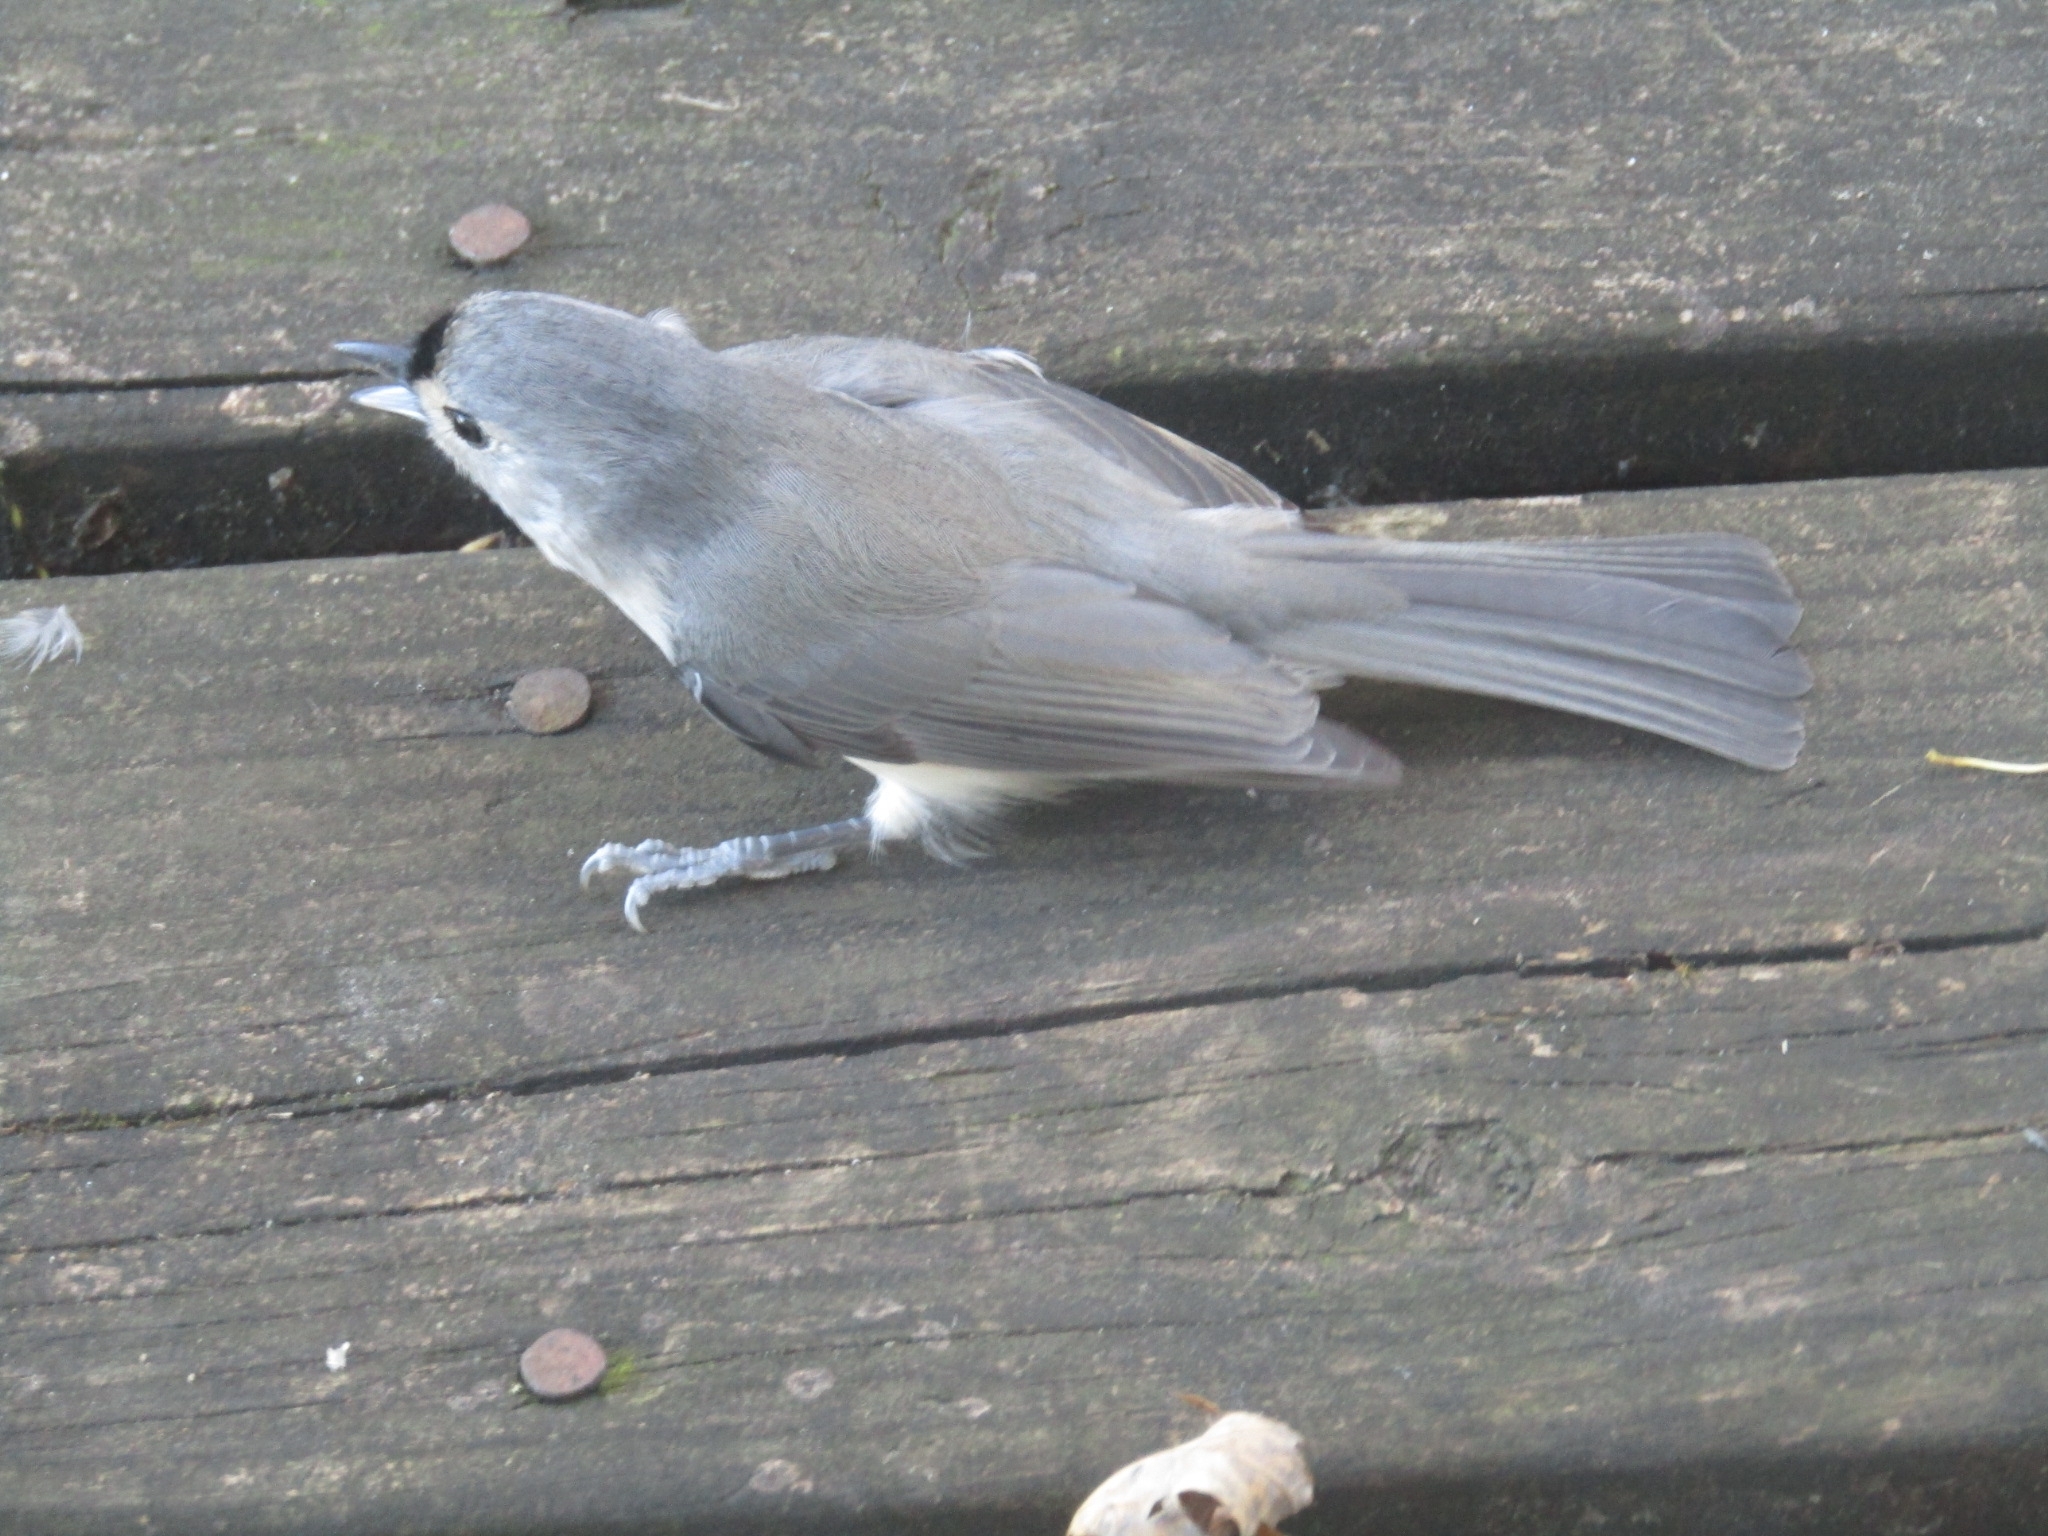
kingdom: Animalia
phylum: Chordata
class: Aves
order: Passeriformes
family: Paridae
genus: Baeolophus
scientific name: Baeolophus bicolor
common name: Tufted titmouse
